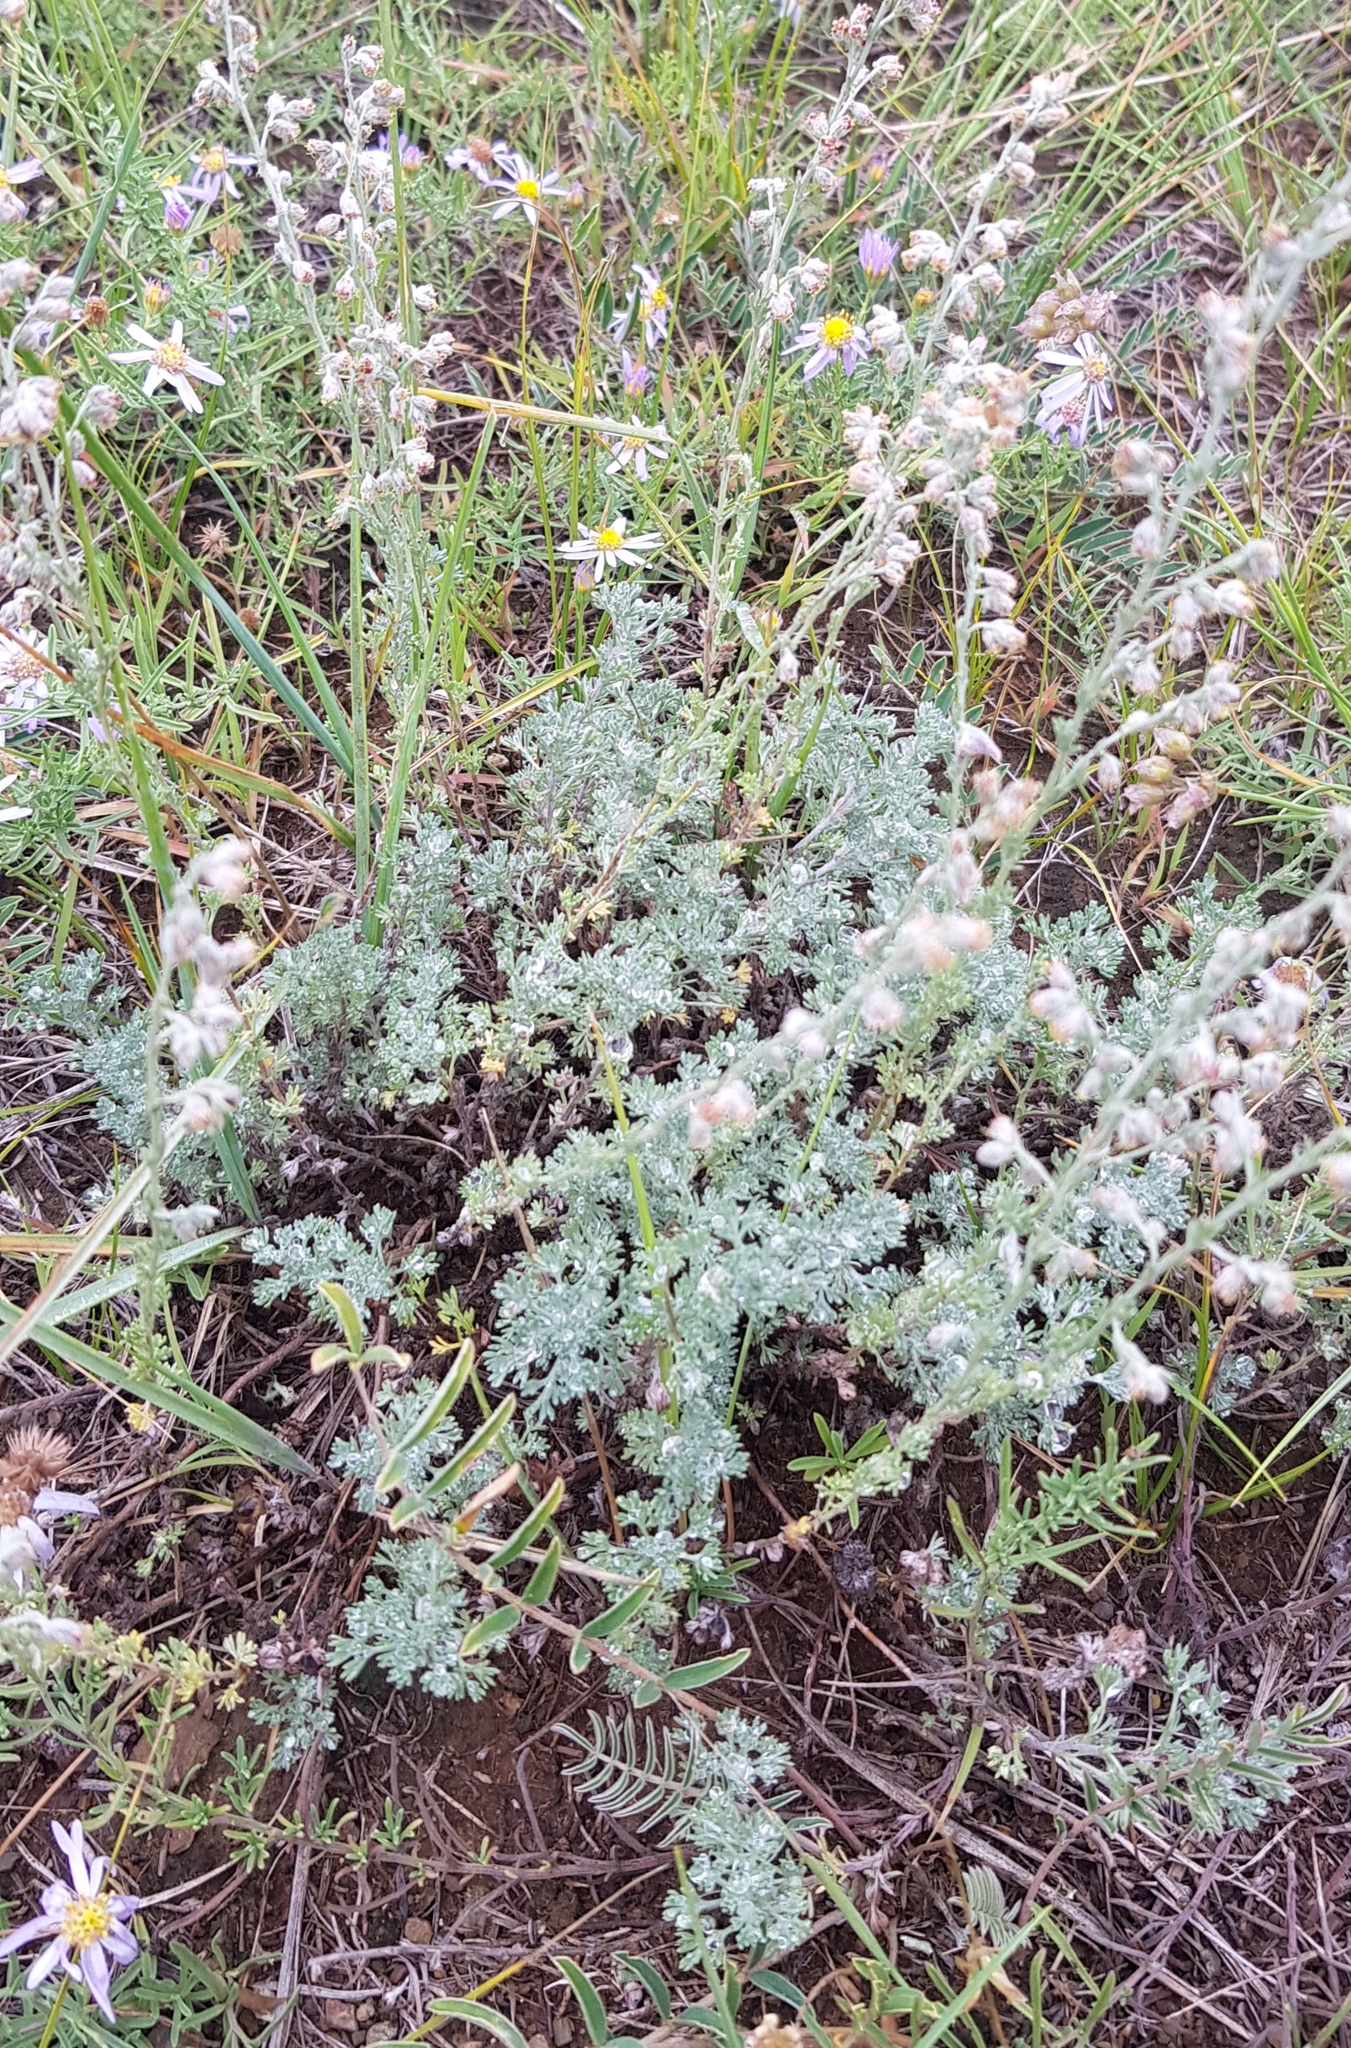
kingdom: Plantae
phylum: Tracheophyta
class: Magnoliopsida
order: Asterales
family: Asteraceae
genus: Artemisia
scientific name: Artemisia frigida
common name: Prairie sagewort
